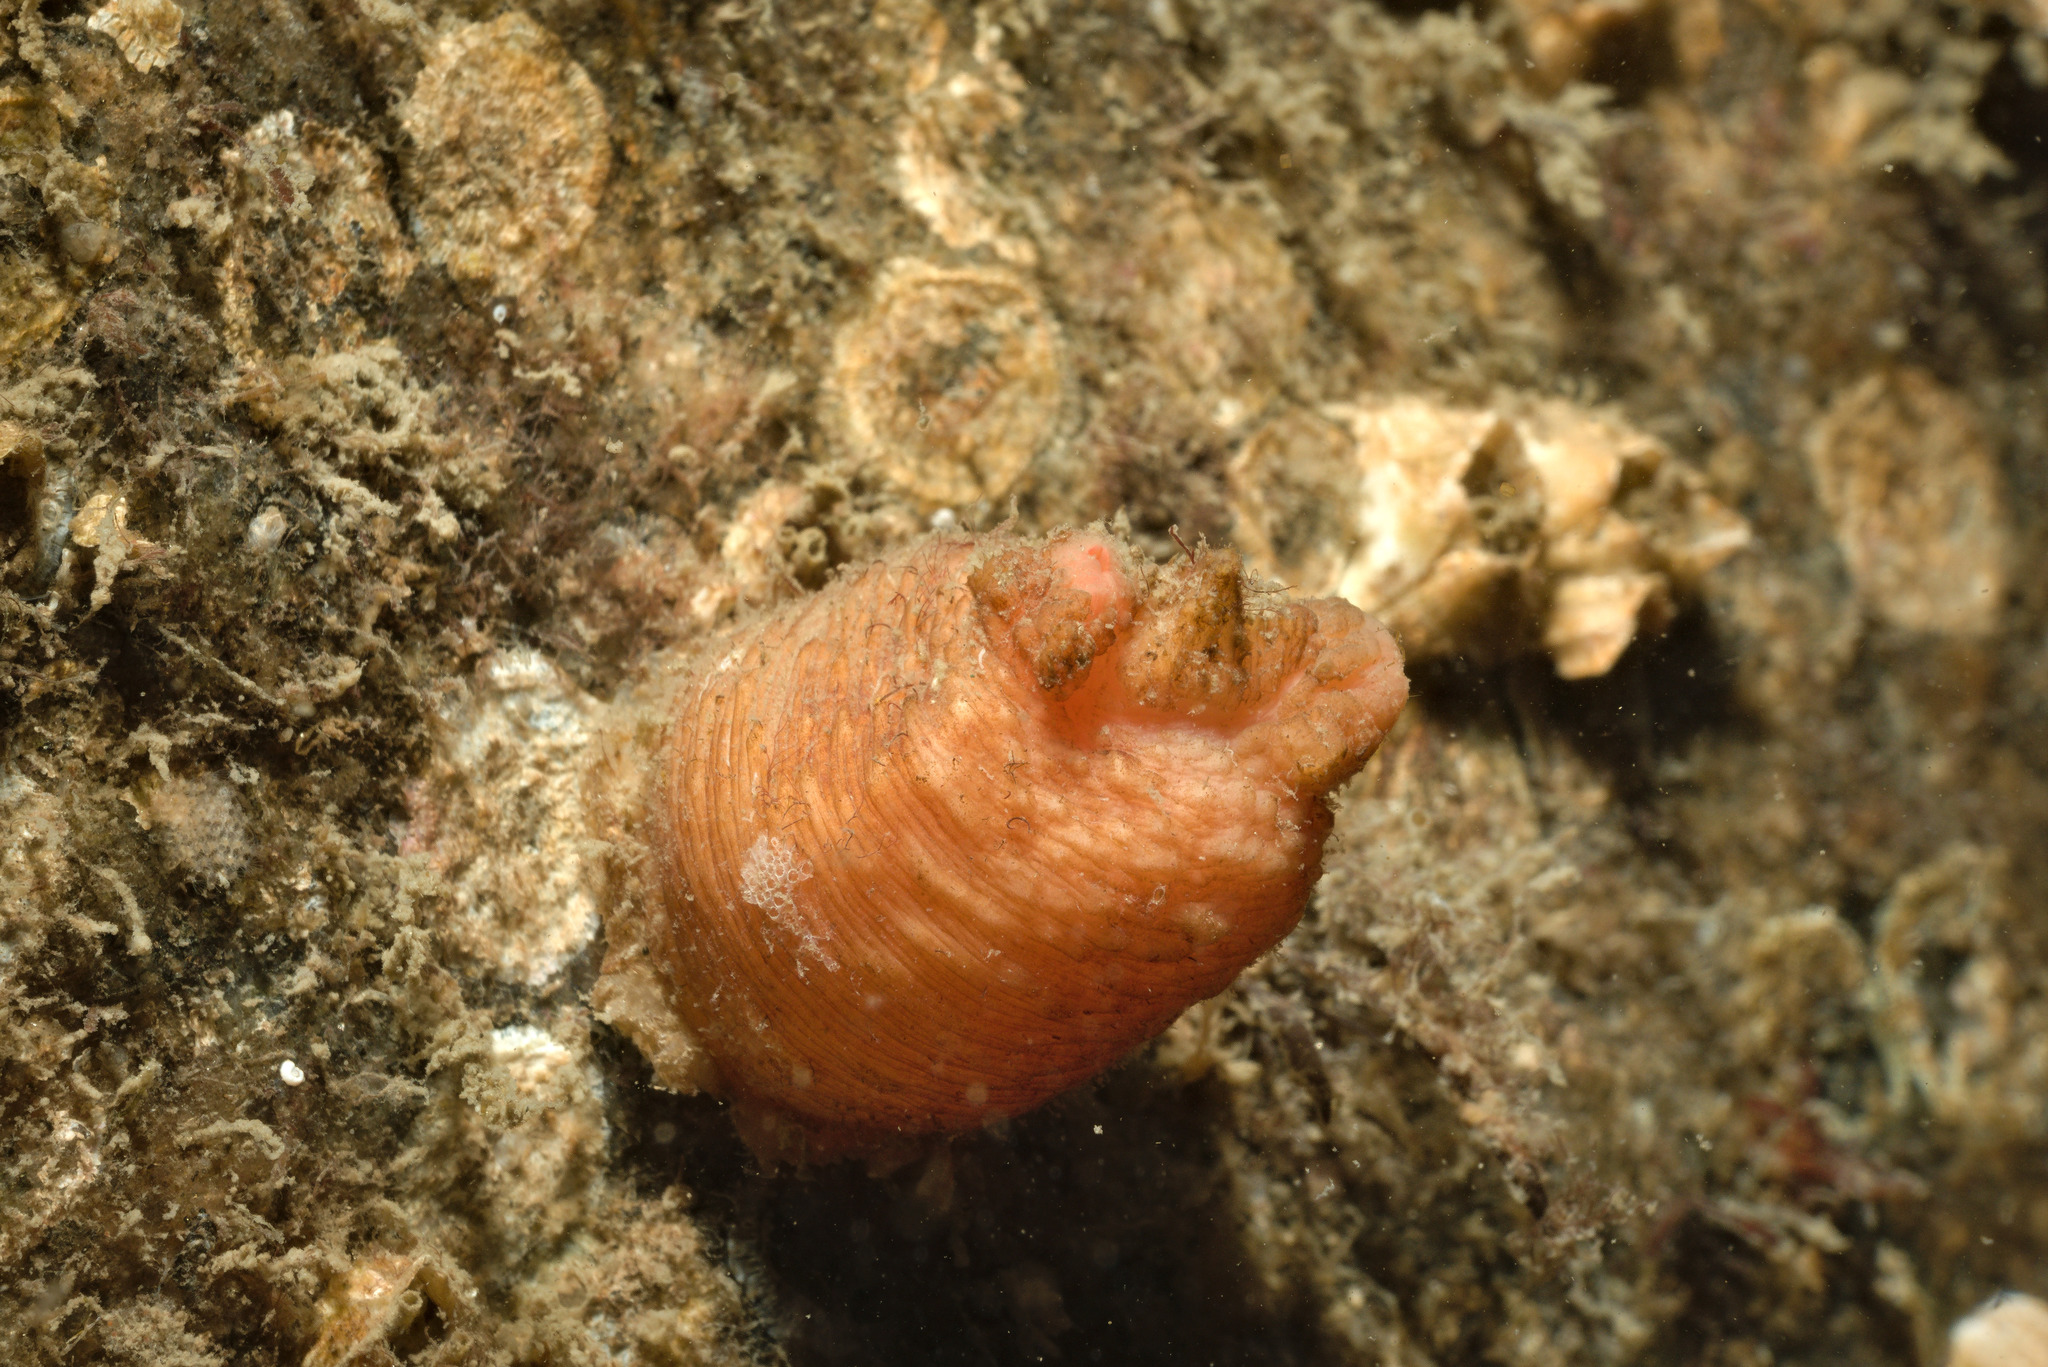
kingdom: Animalia
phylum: Chordata
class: Ascidiacea
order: Stolidobranchia
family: Styelidae
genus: Styela
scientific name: Styela rustica
